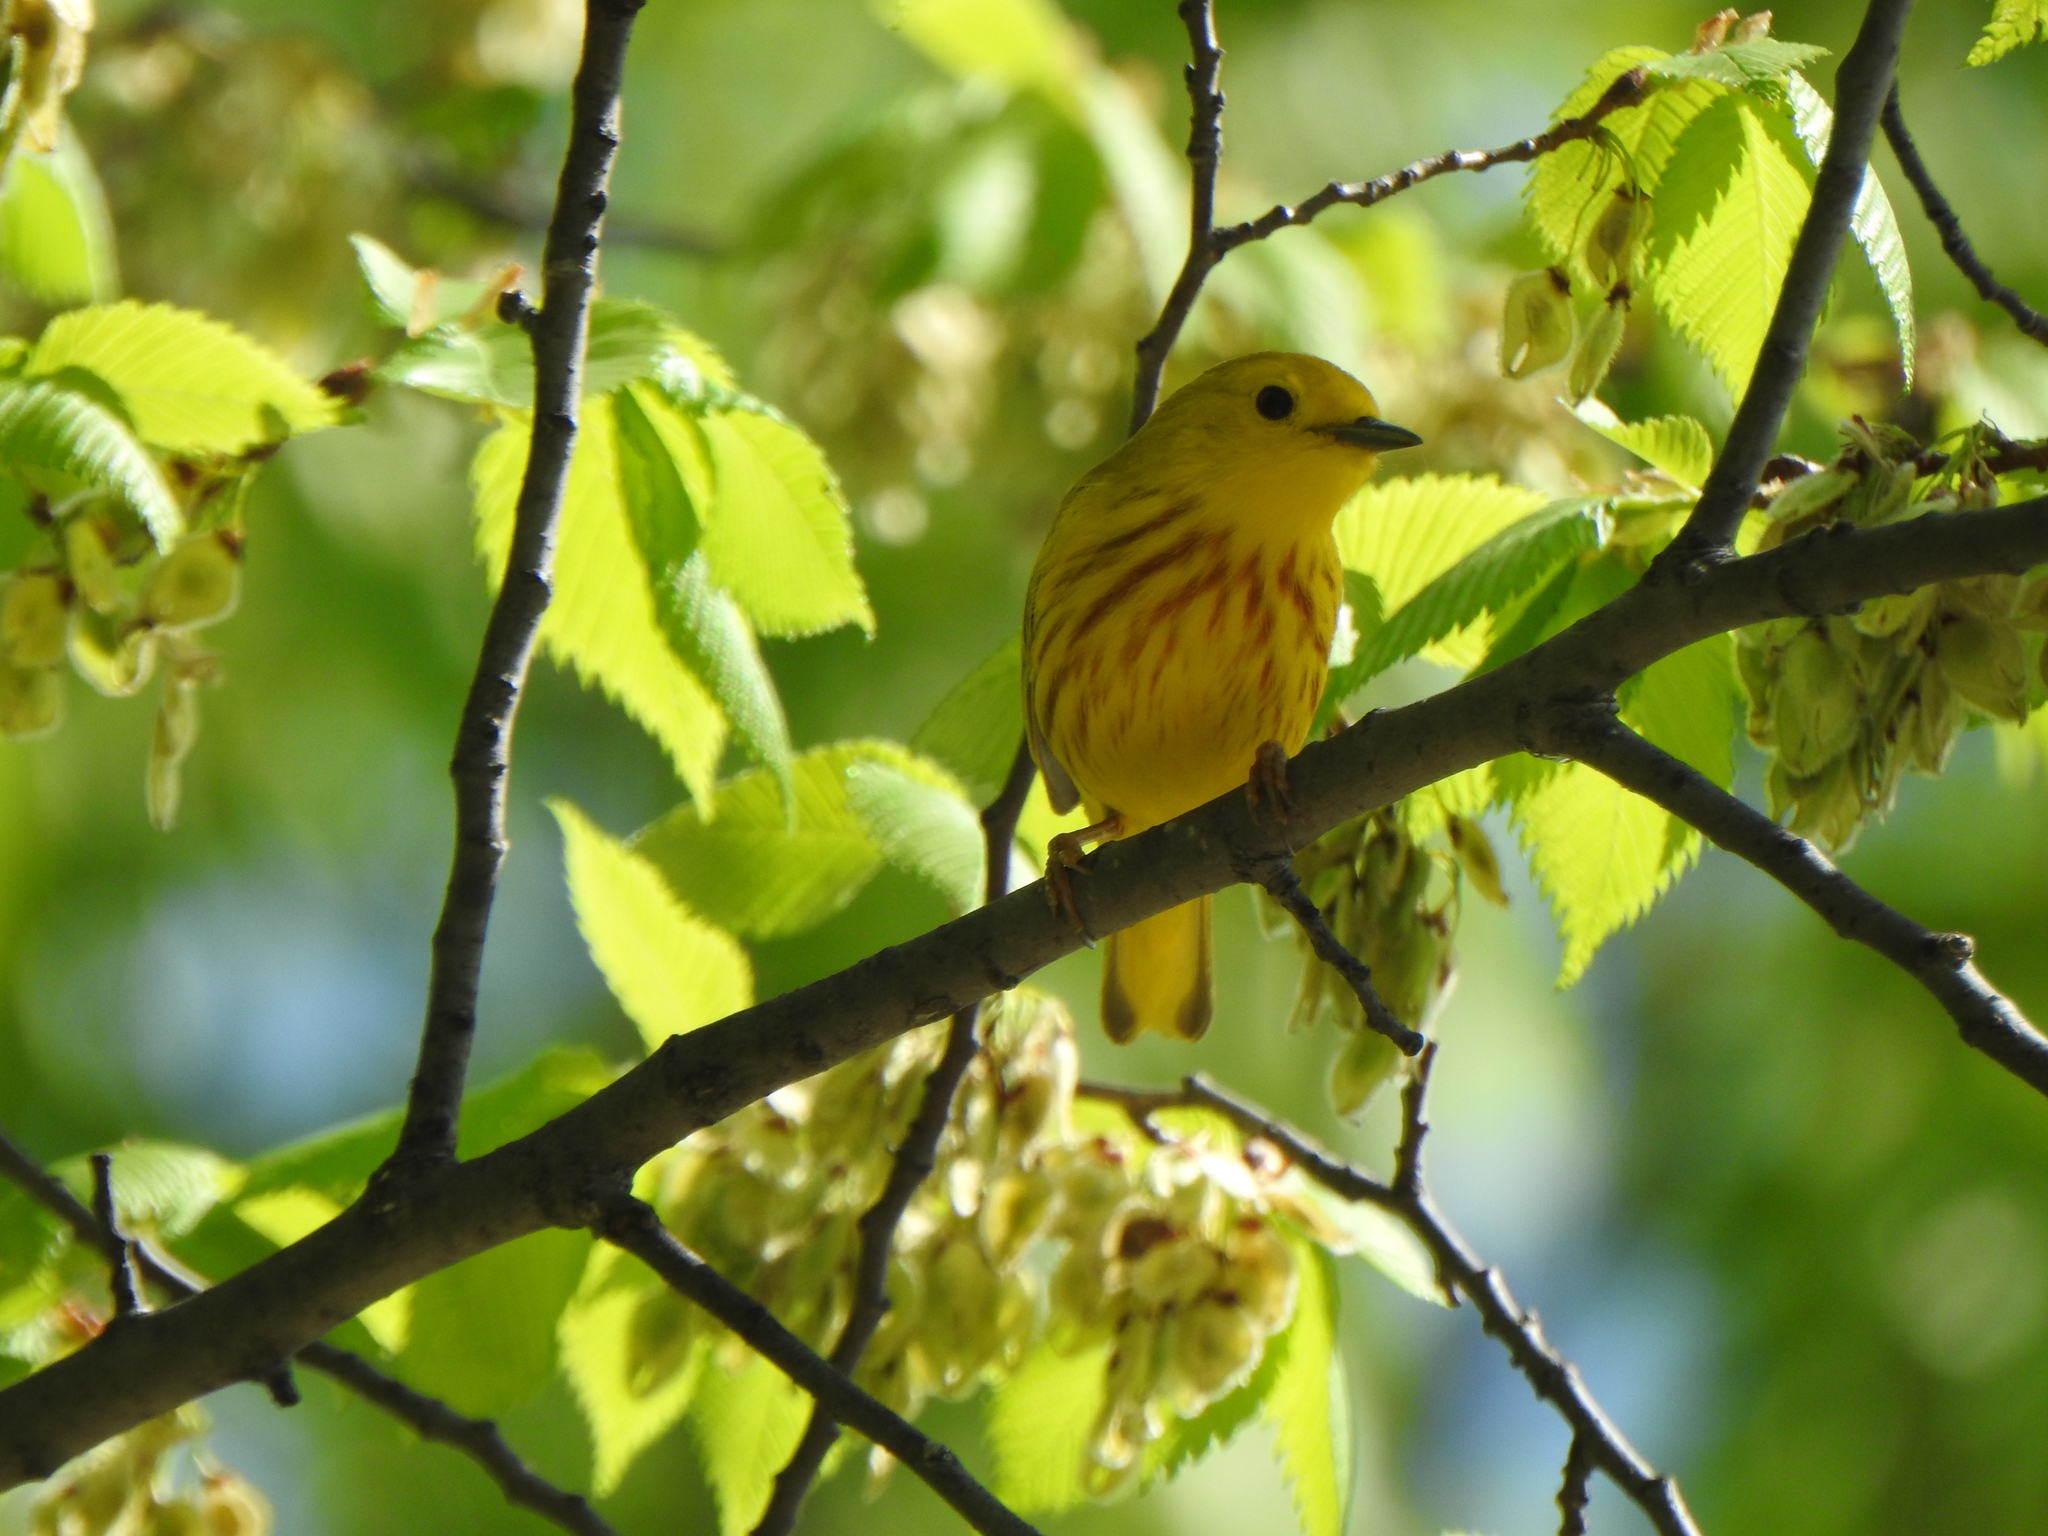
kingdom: Animalia
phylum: Chordata
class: Aves
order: Passeriformes
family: Parulidae
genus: Setophaga
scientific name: Setophaga petechia
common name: Yellow warbler
